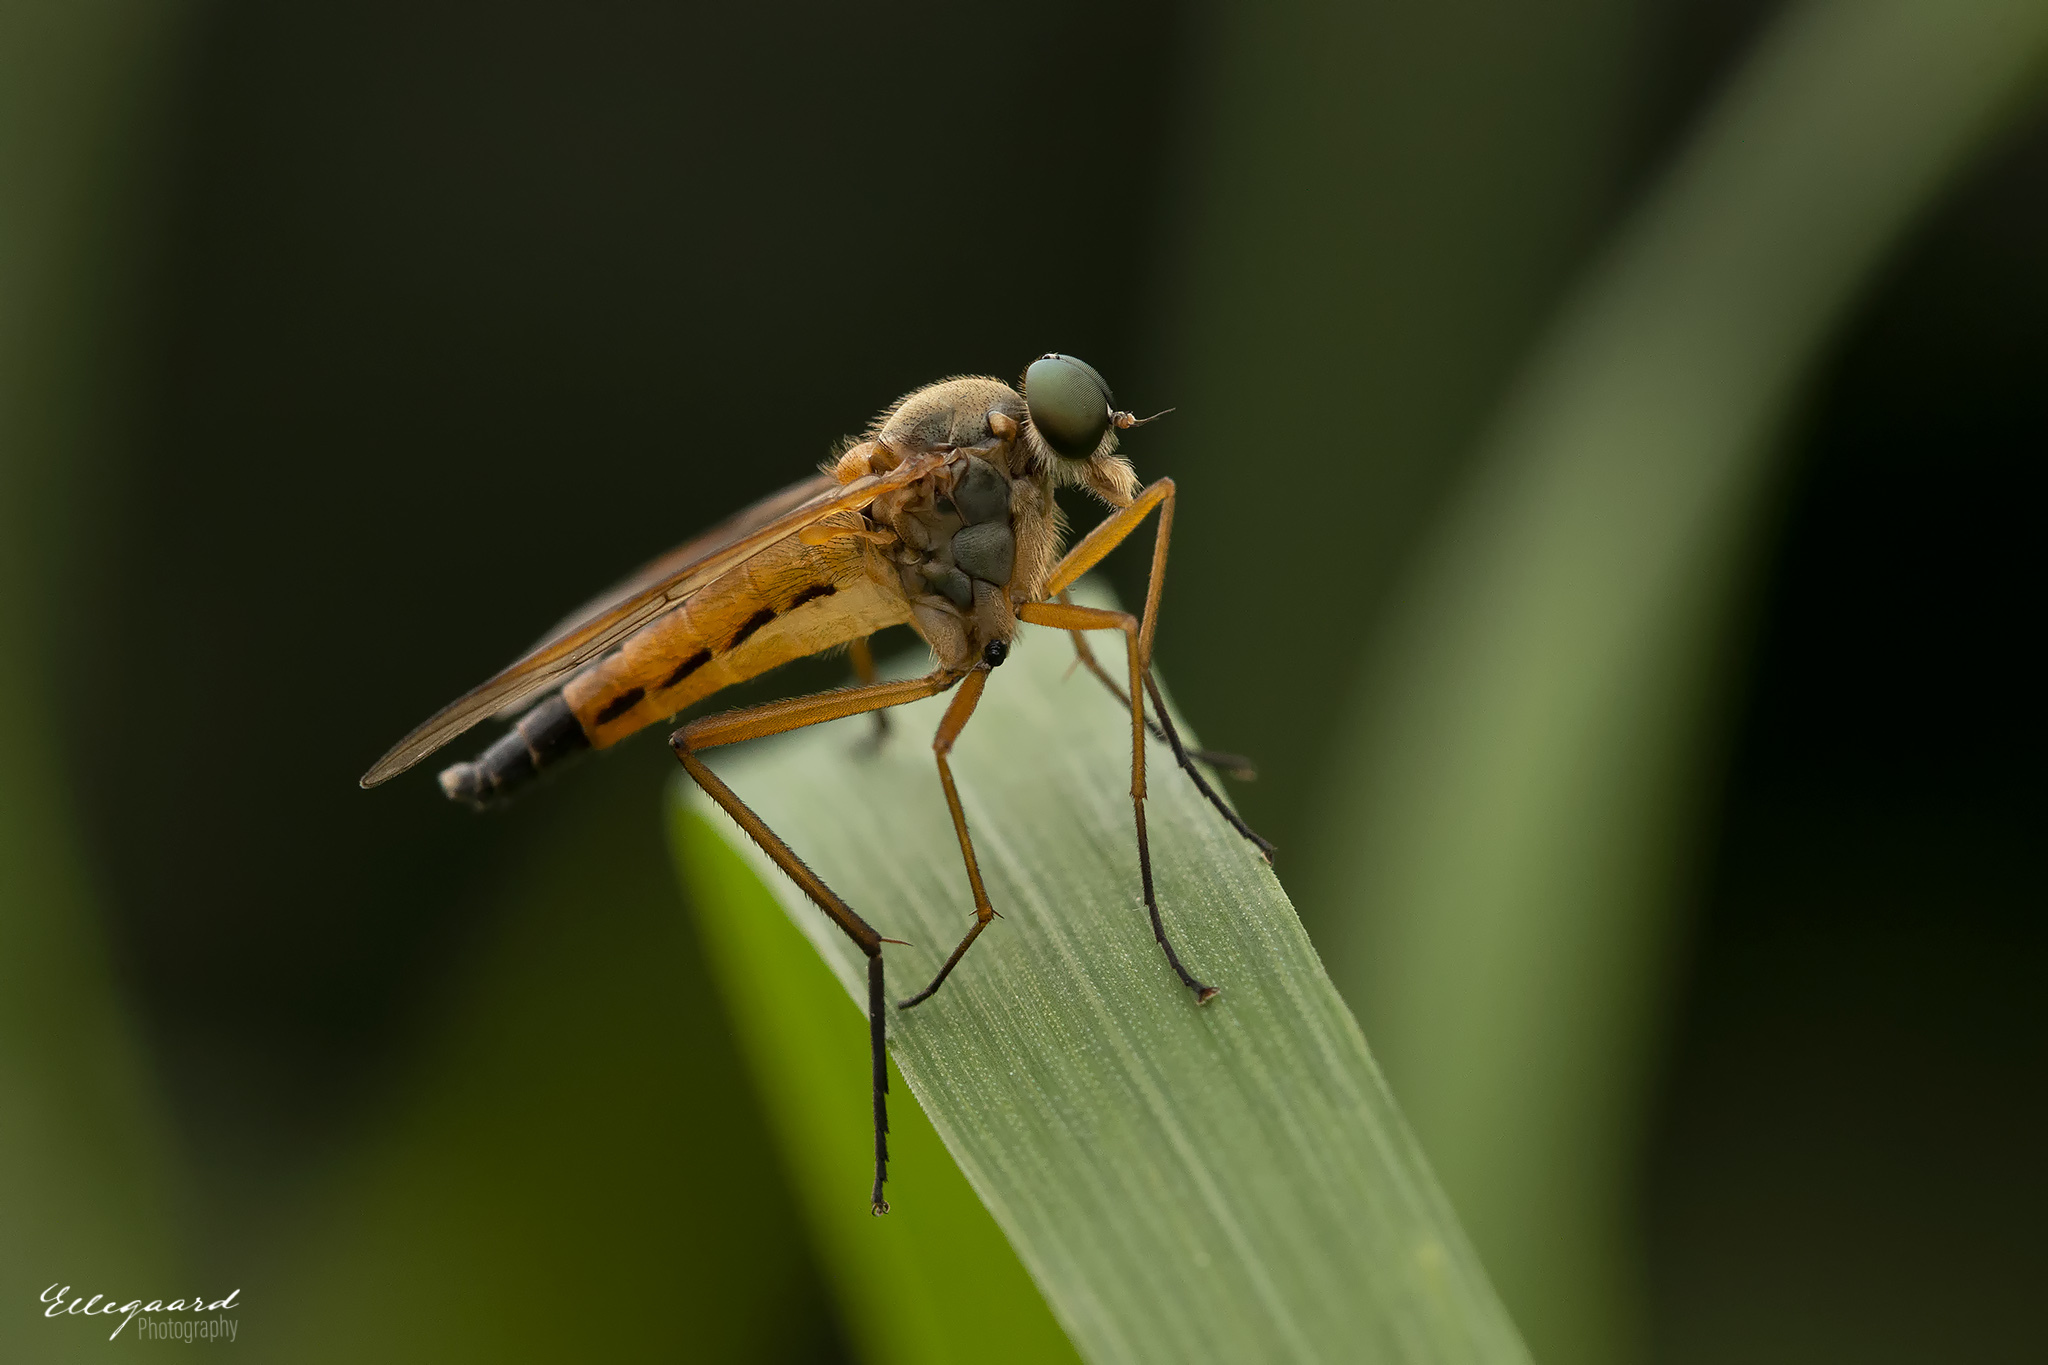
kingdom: Animalia
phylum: Arthropoda
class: Insecta
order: Diptera
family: Rhagionidae
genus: Rhagio
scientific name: Rhagio tringaria
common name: Marsh snipefly
